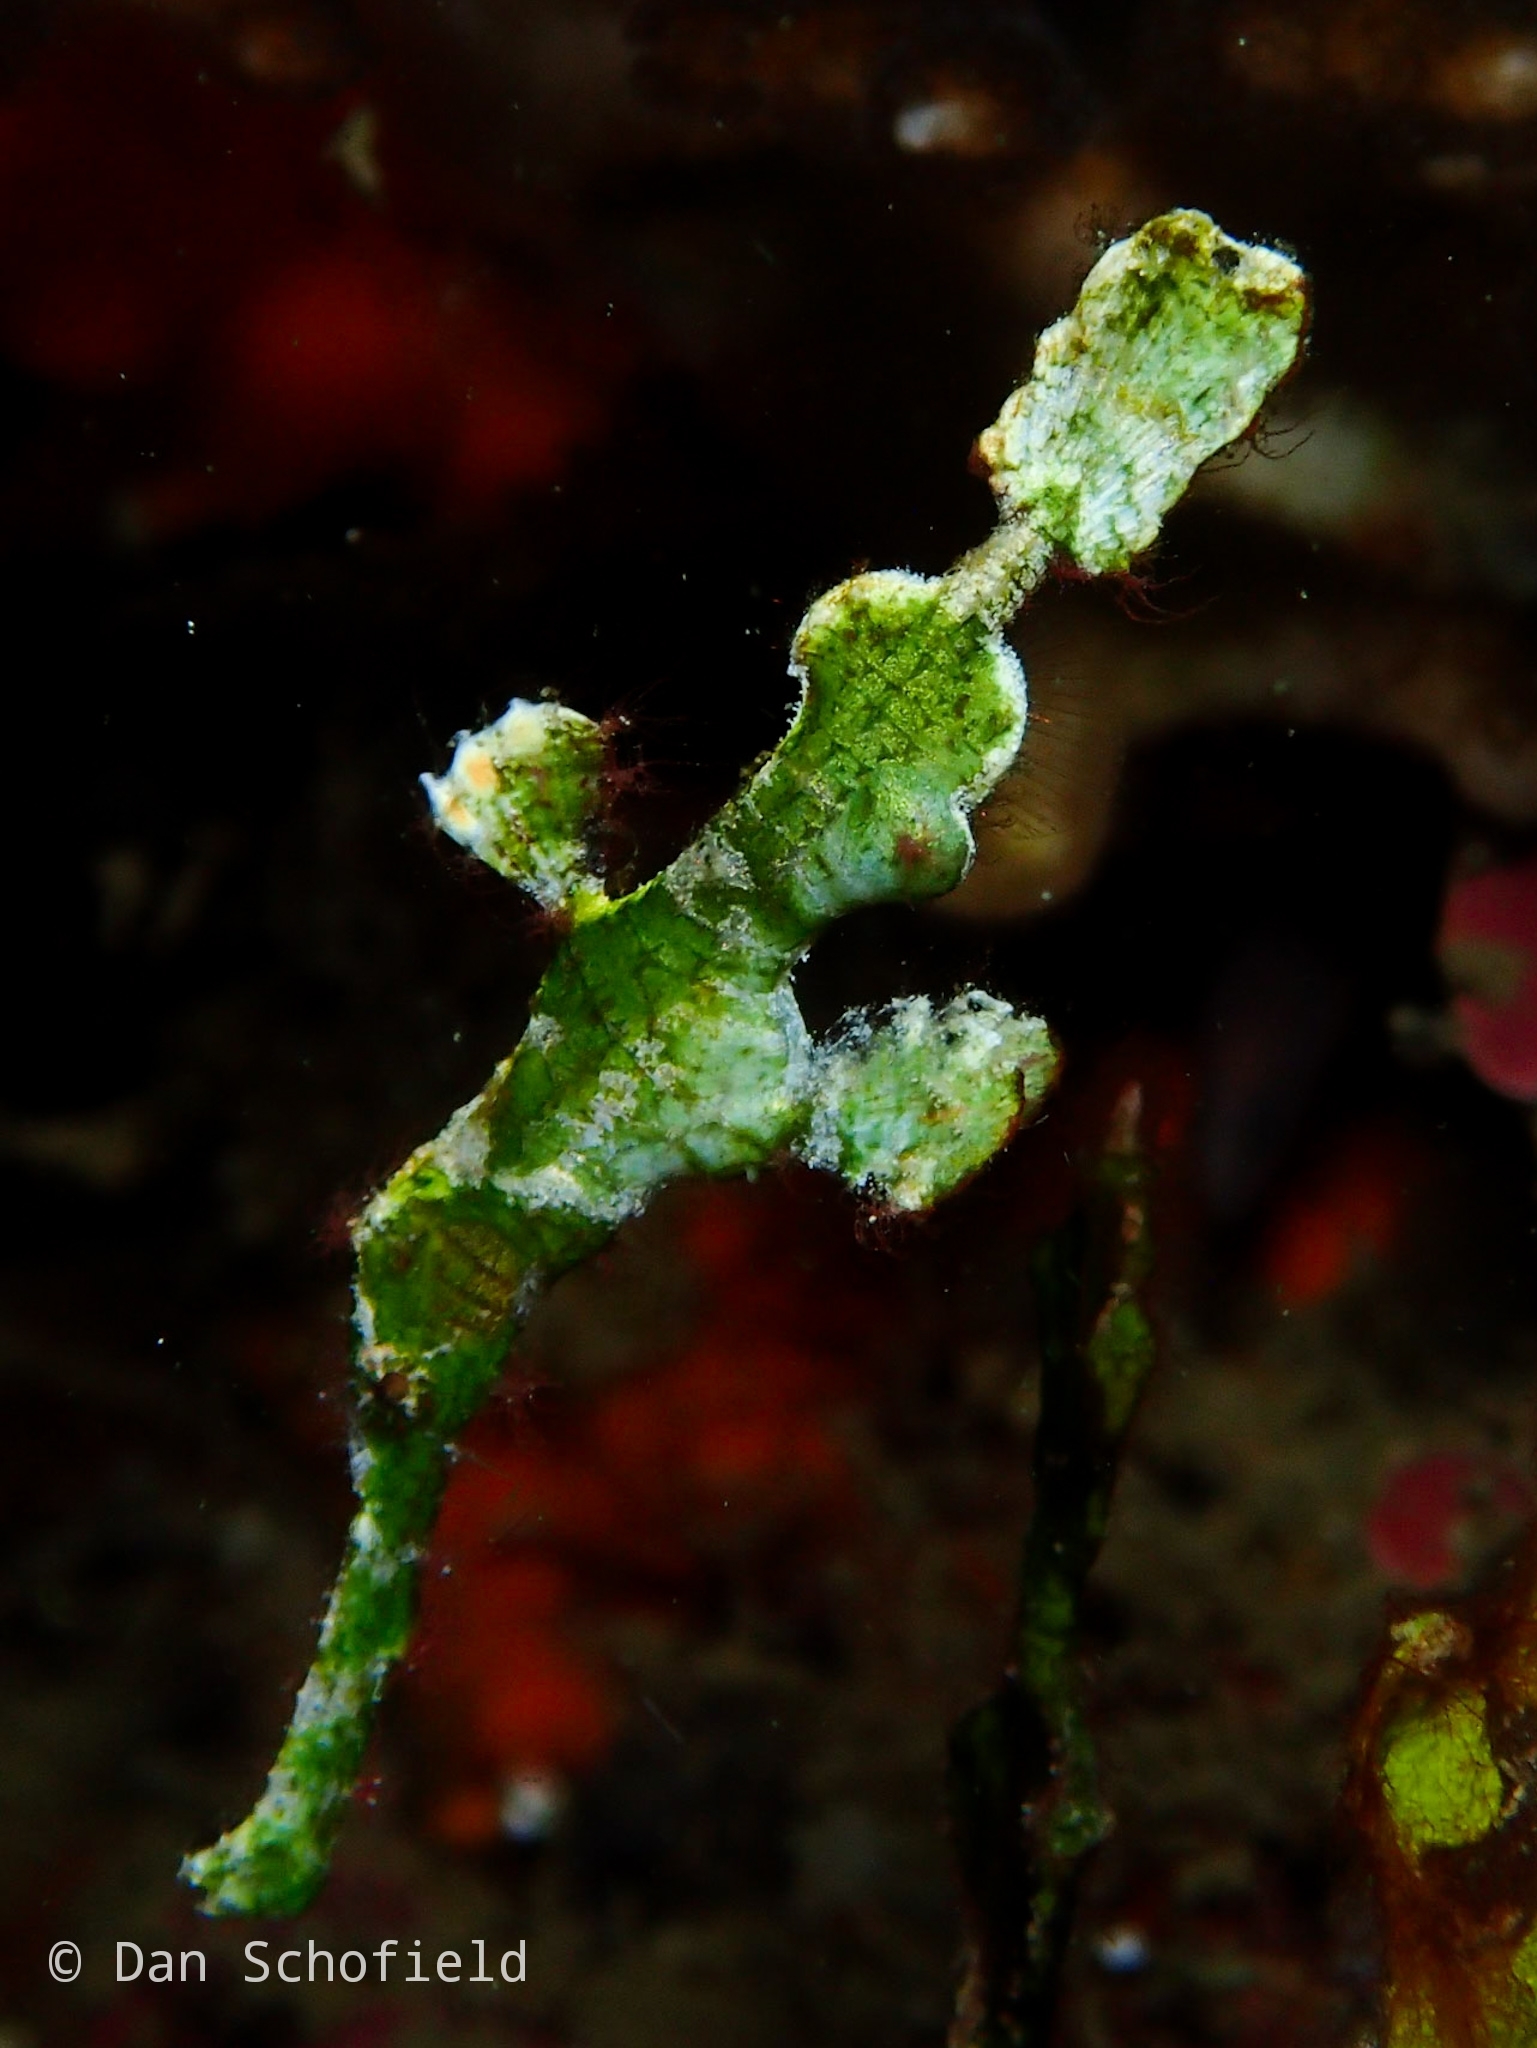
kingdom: Animalia
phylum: Chordata
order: Syngnathiformes
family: Solenostomidae
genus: Solenostomus
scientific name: Solenostomus halimeda
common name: Halimeda ghost pipefish
